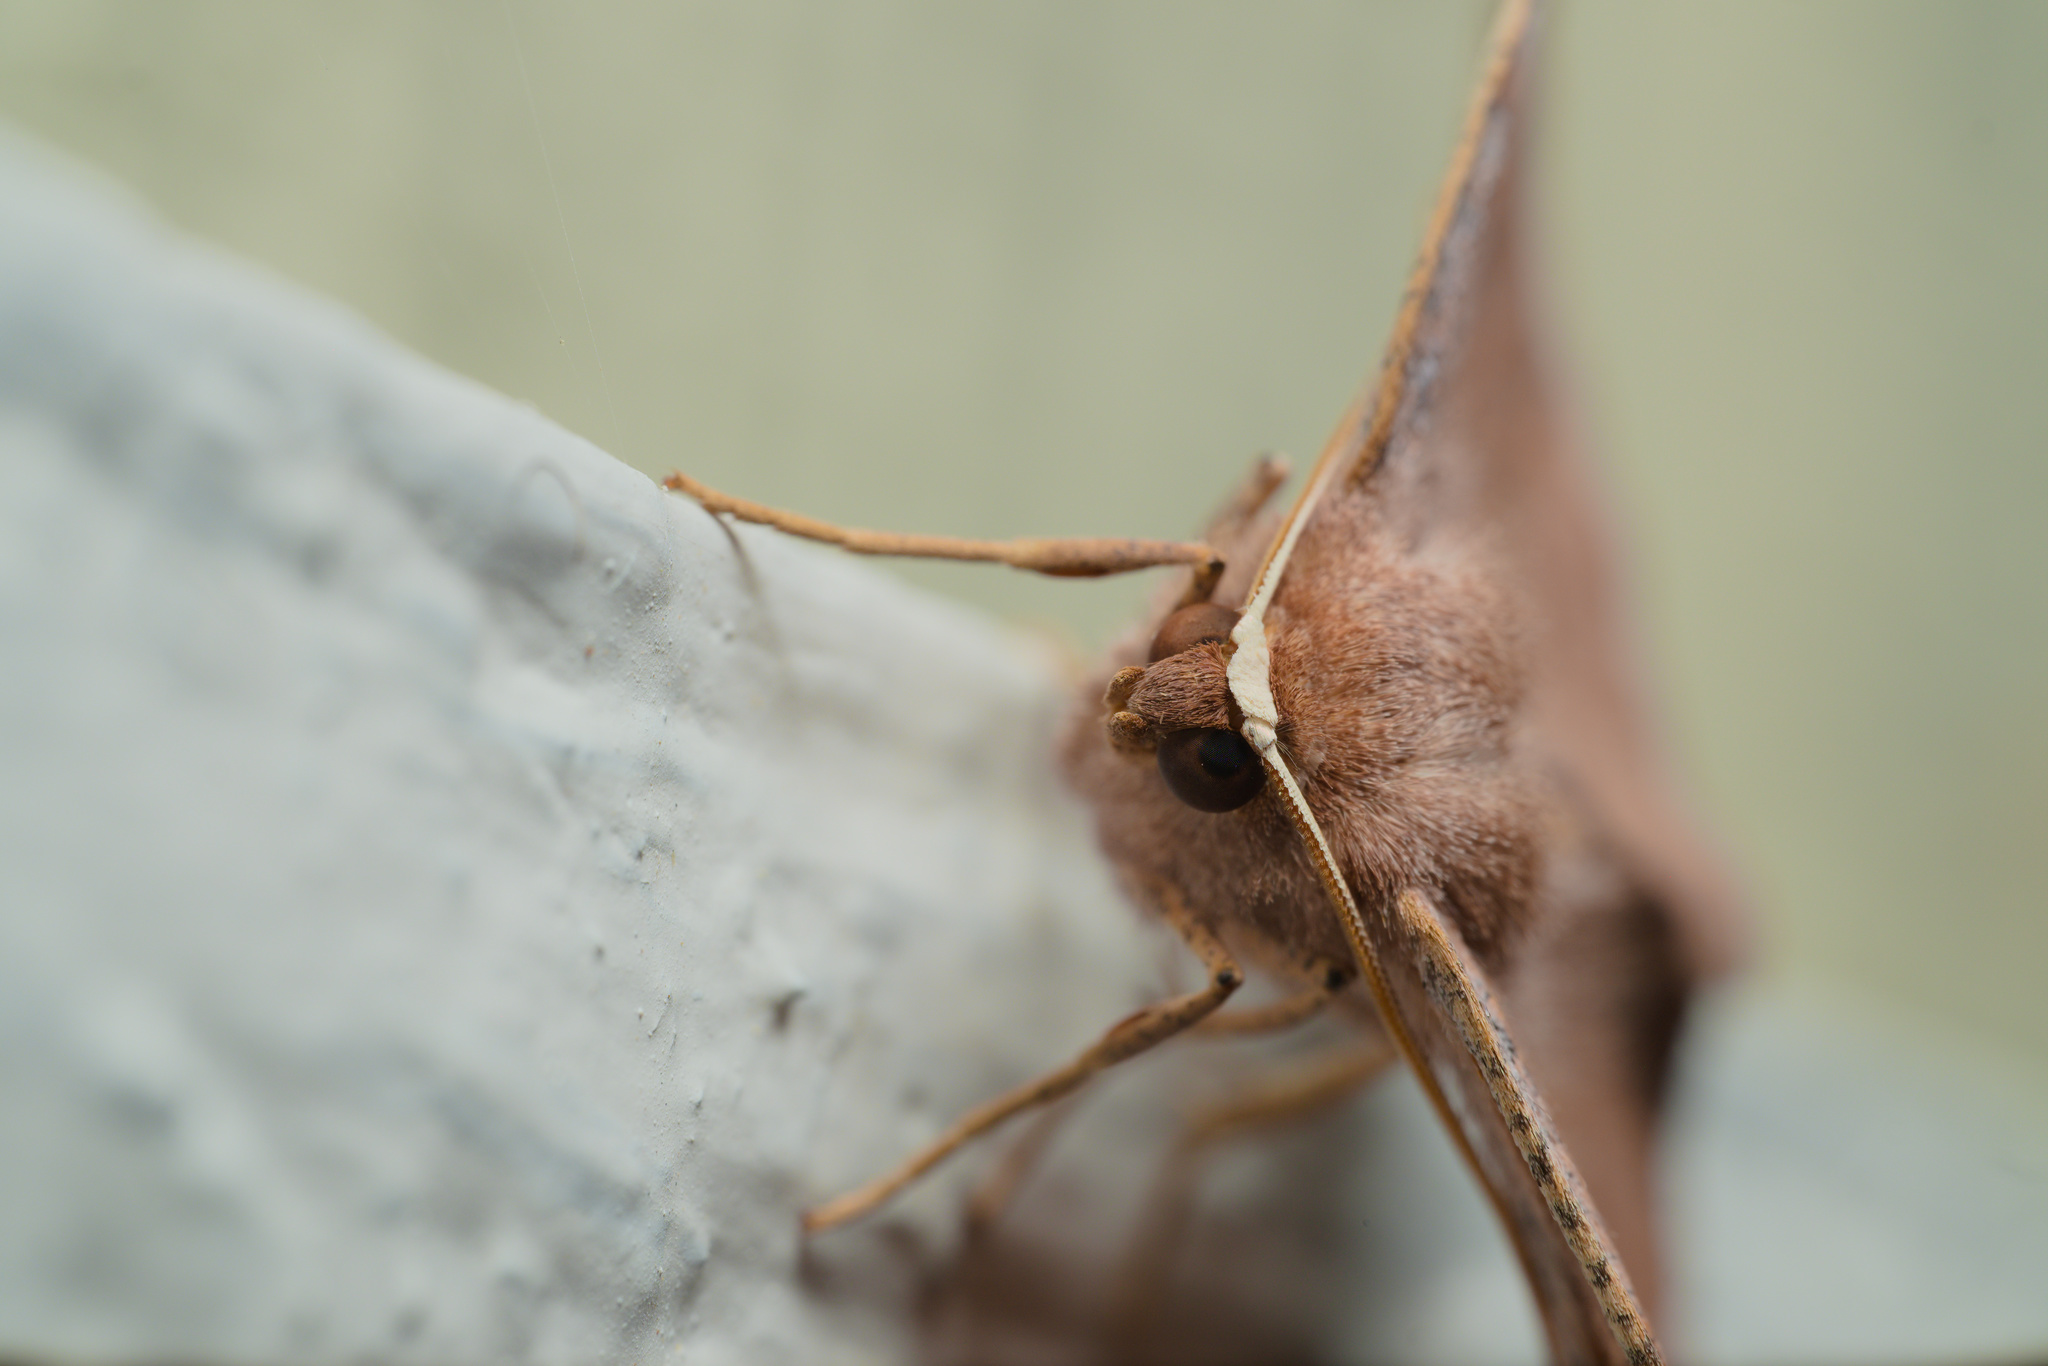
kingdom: Animalia
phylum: Arthropoda
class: Insecta
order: Lepidoptera
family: Geometridae
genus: Eutrapela
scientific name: Eutrapela clemataria
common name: Curved-toothed geometer
